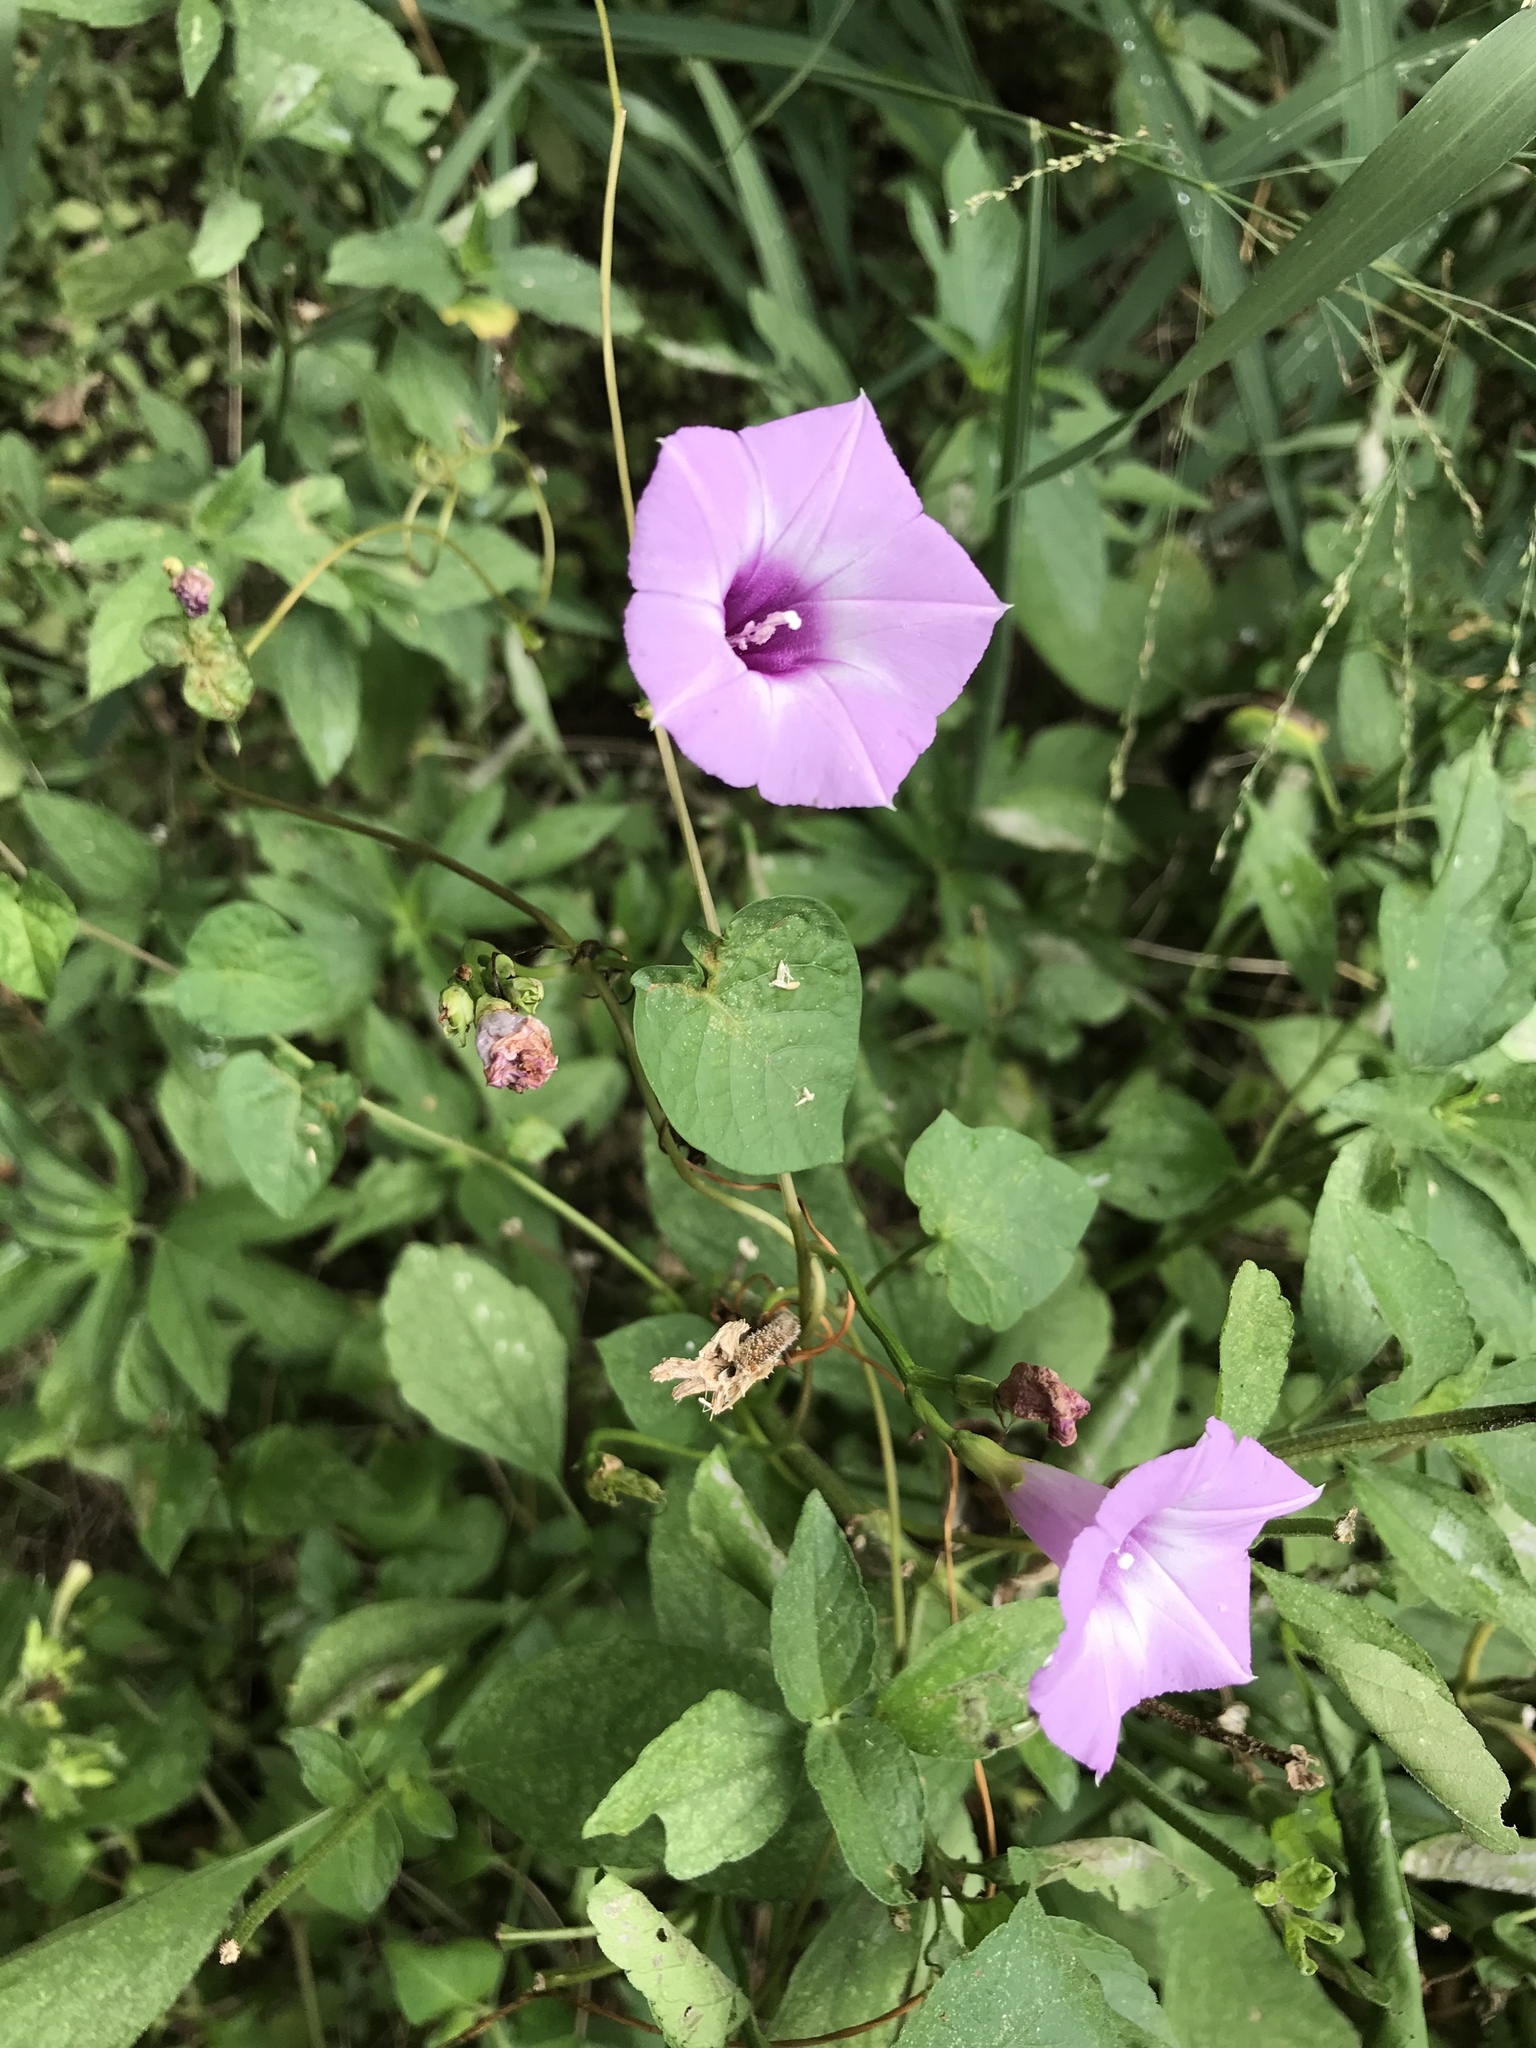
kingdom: Plantae
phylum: Tracheophyta
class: Magnoliopsida
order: Solanales
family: Convolvulaceae
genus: Ipomoea
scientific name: Ipomoea cordatotriloba
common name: Cotton morning glory
